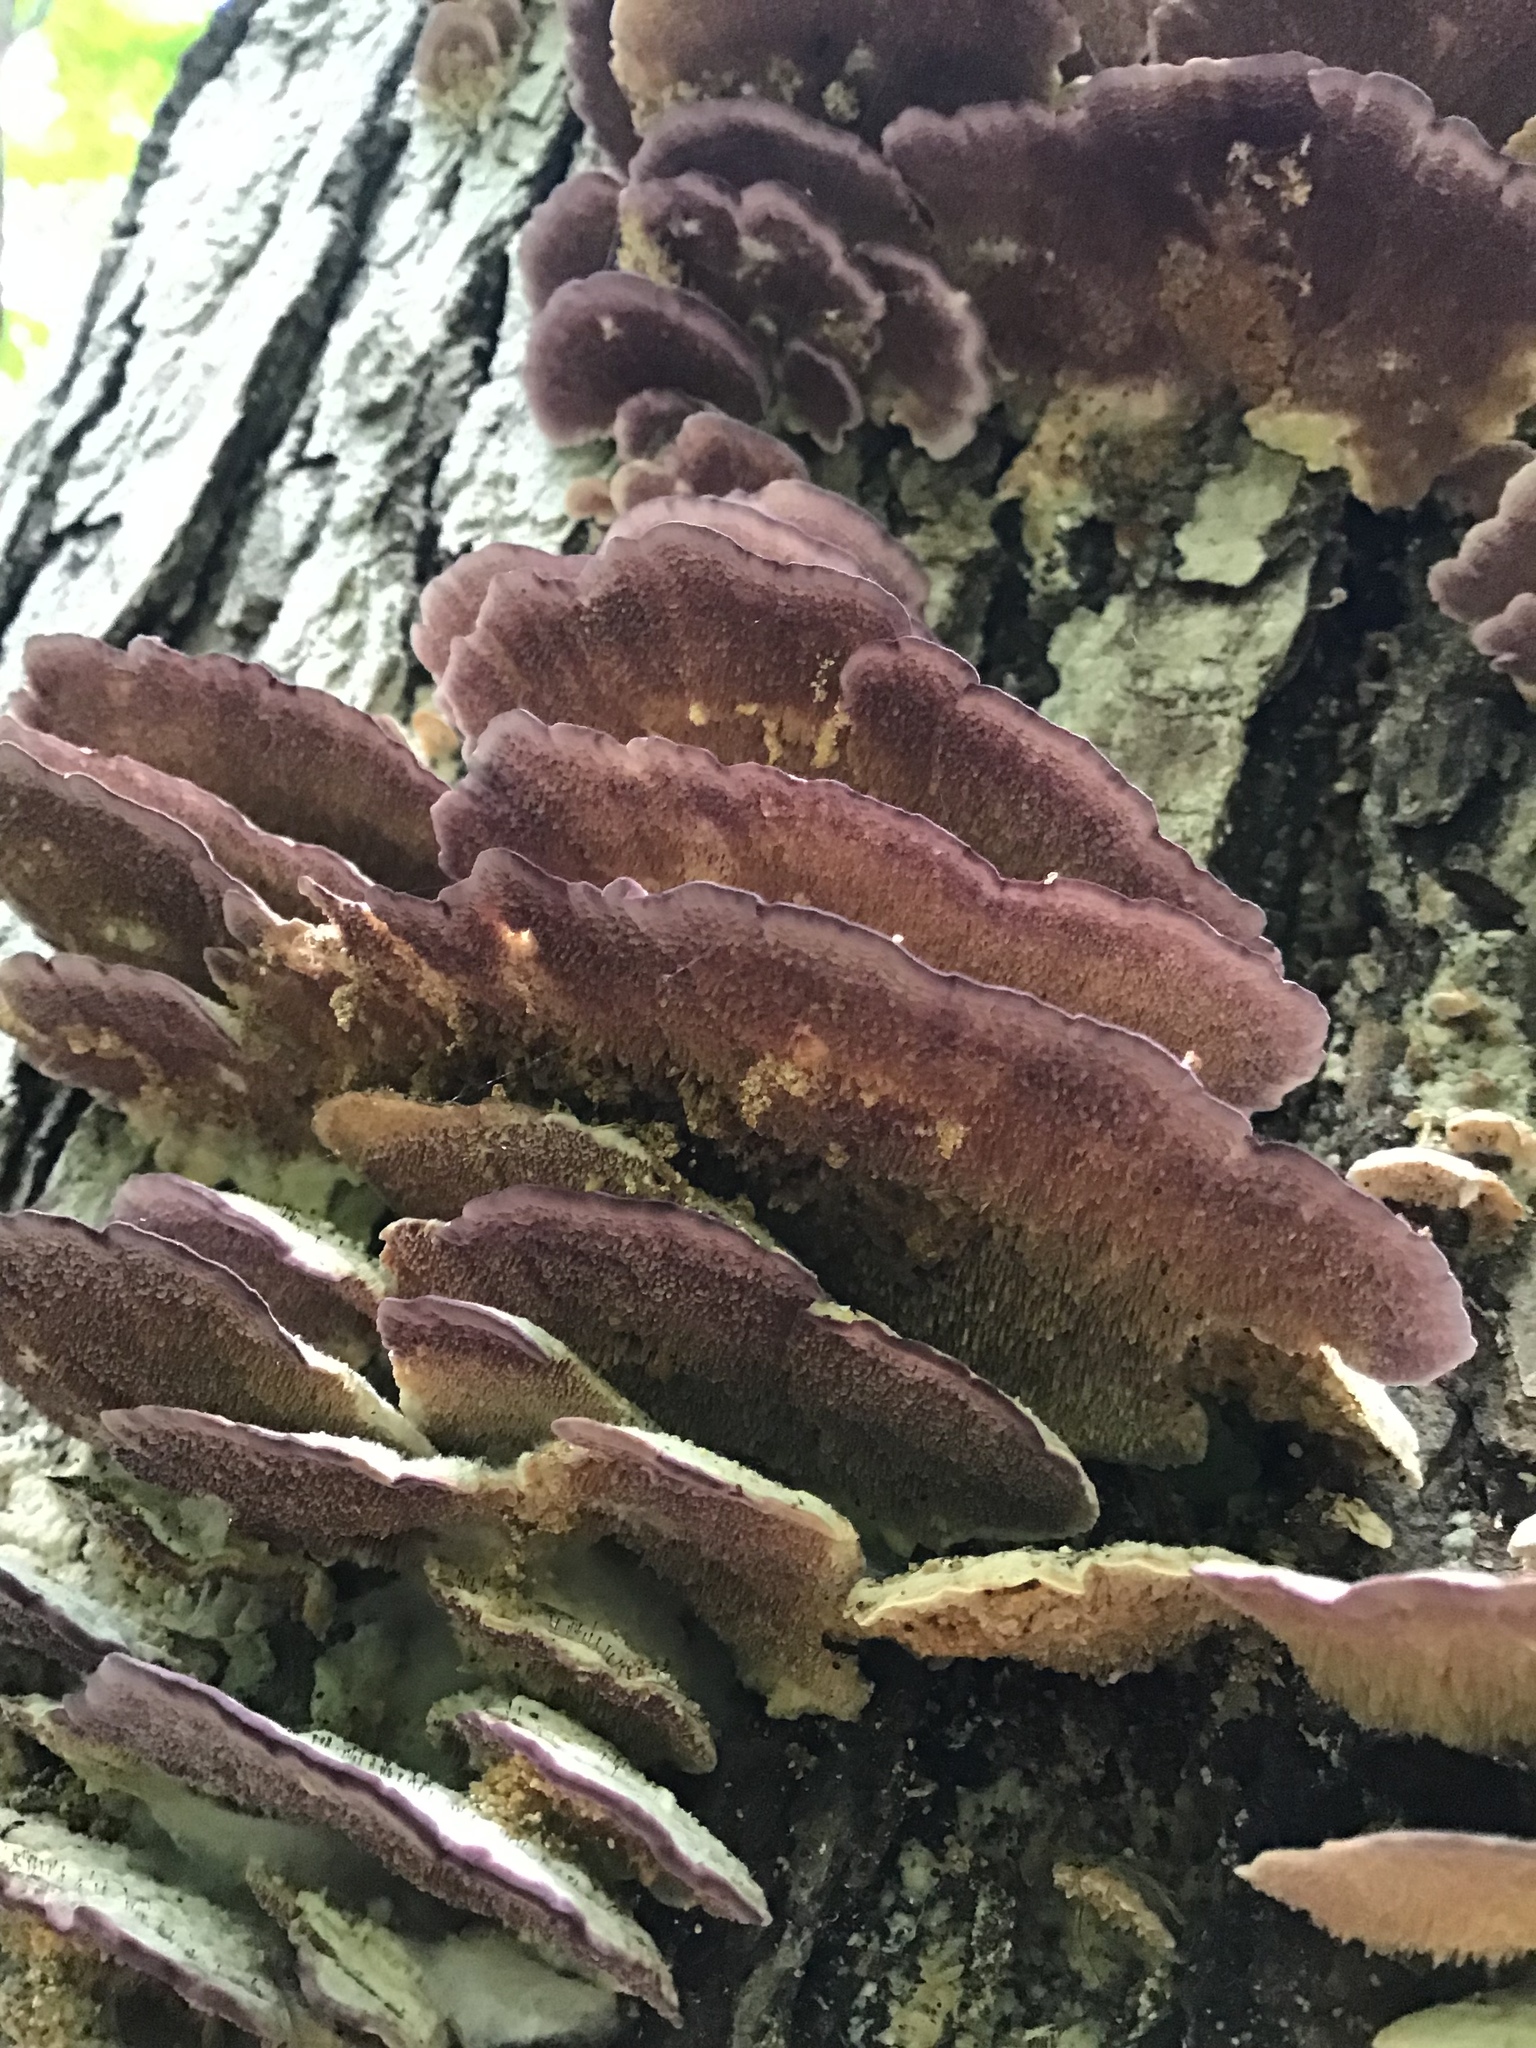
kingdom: Fungi
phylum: Basidiomycota
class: Agaricomycetes
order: Hymenochaetales
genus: Trichaptum
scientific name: Trichaptum biforme
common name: Violet-toothed polypore
